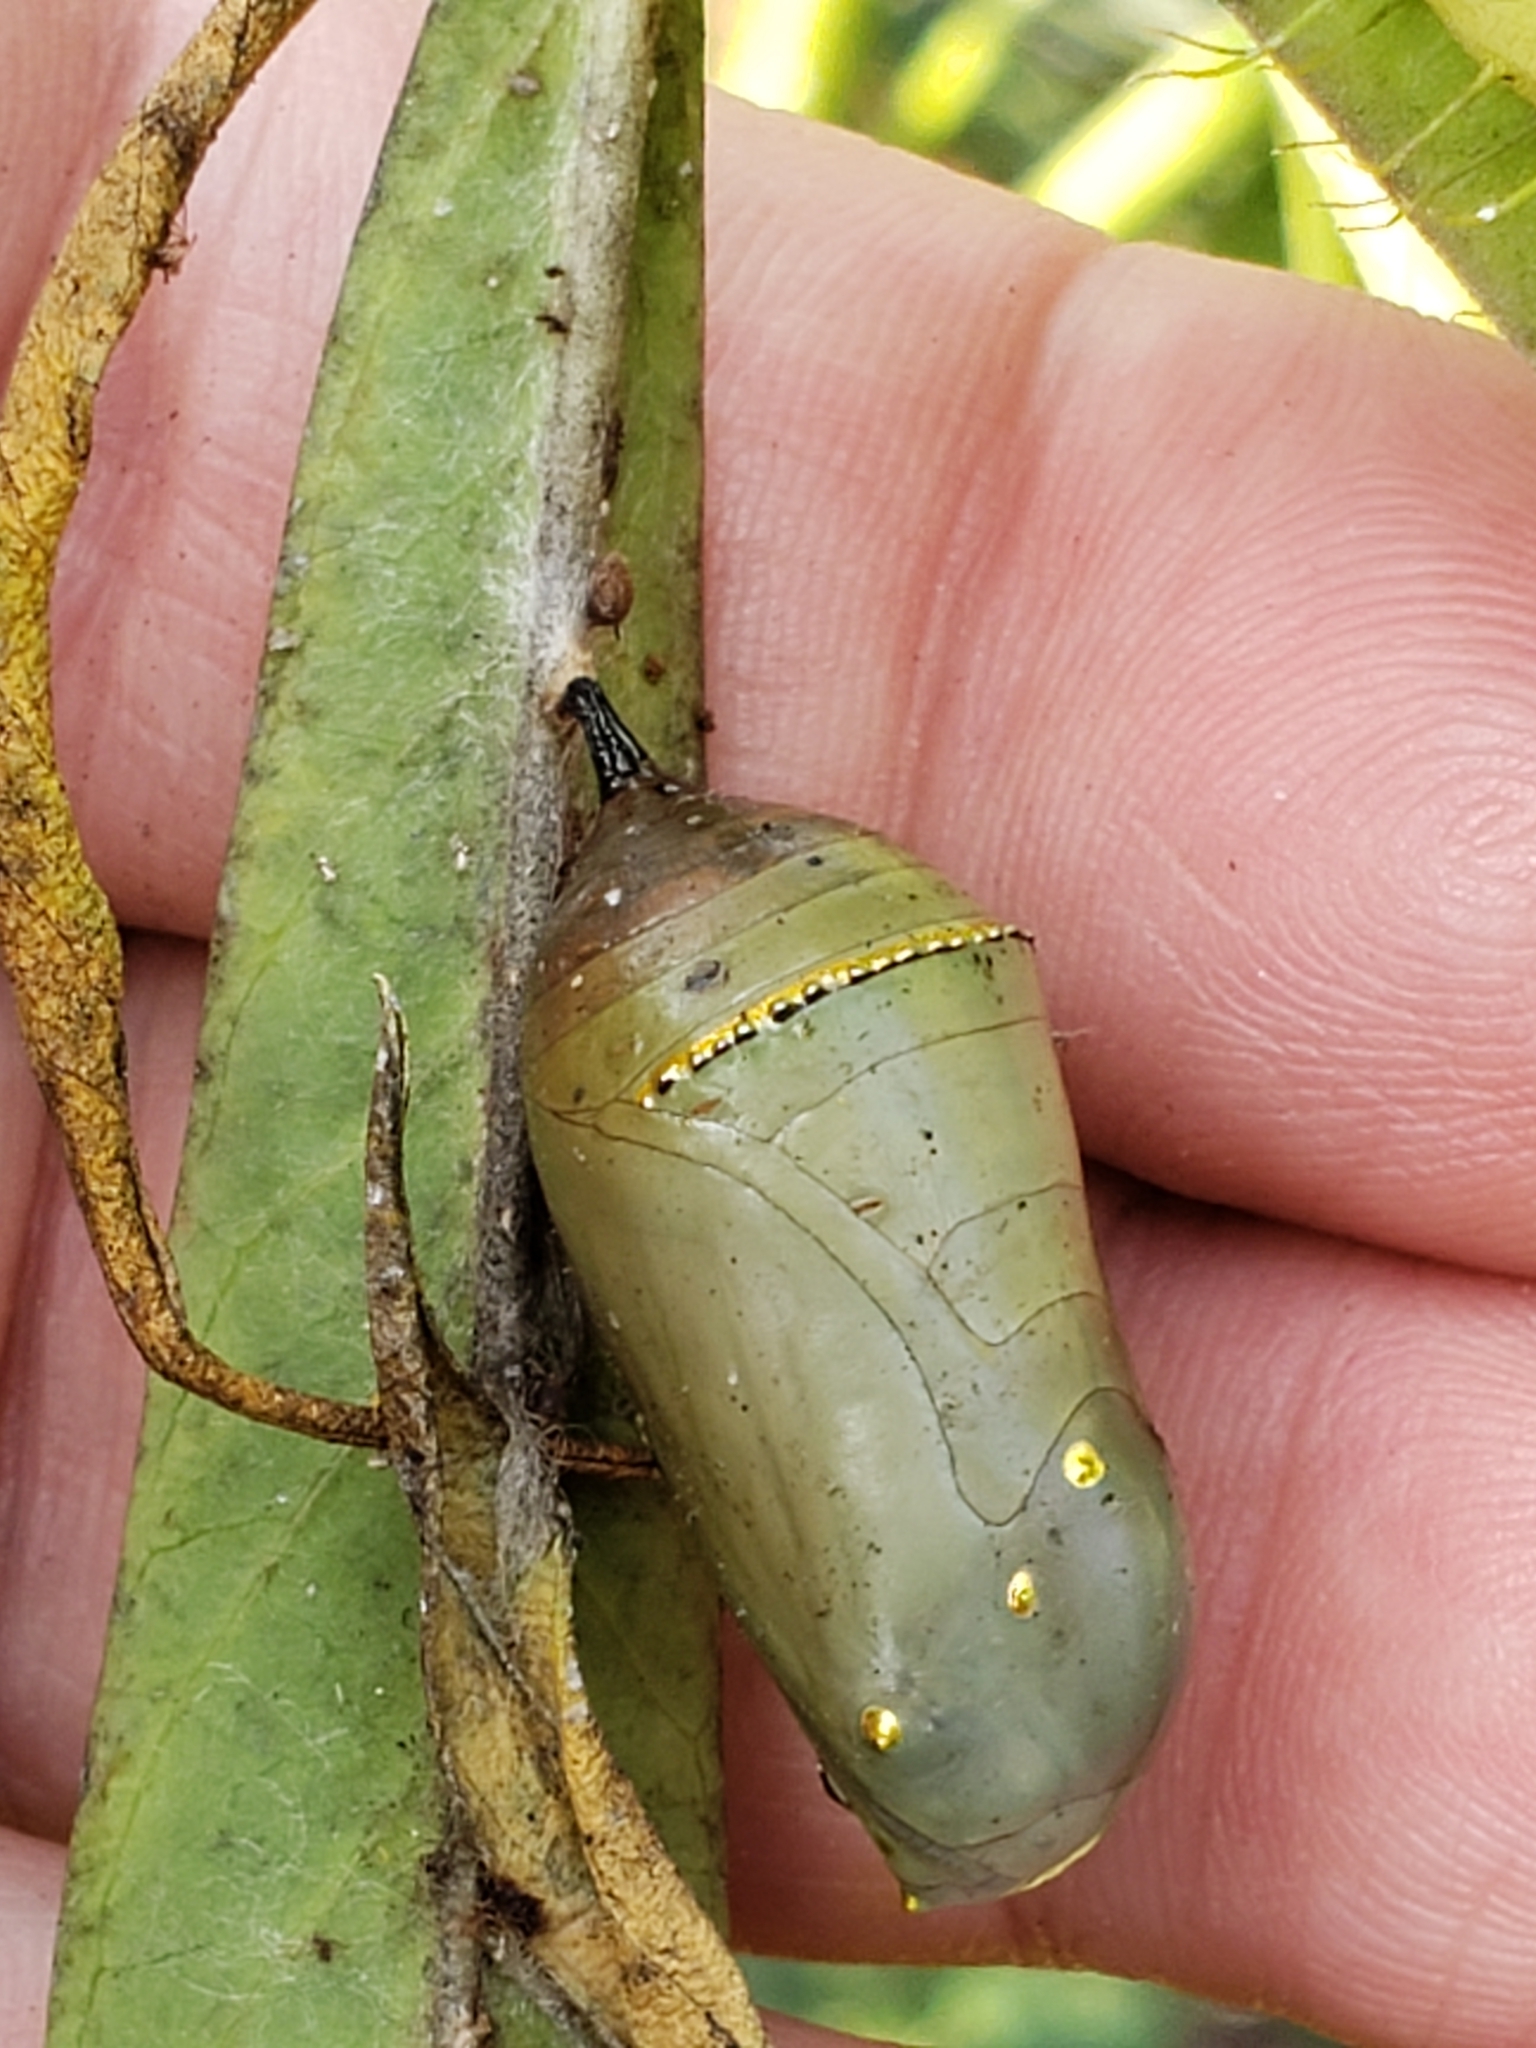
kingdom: Animalia
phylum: Arthropoda
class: Insecta
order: Lepidoptera
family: Nymphalidae
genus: Danaus
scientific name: Danaus plexippus
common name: Monarch
